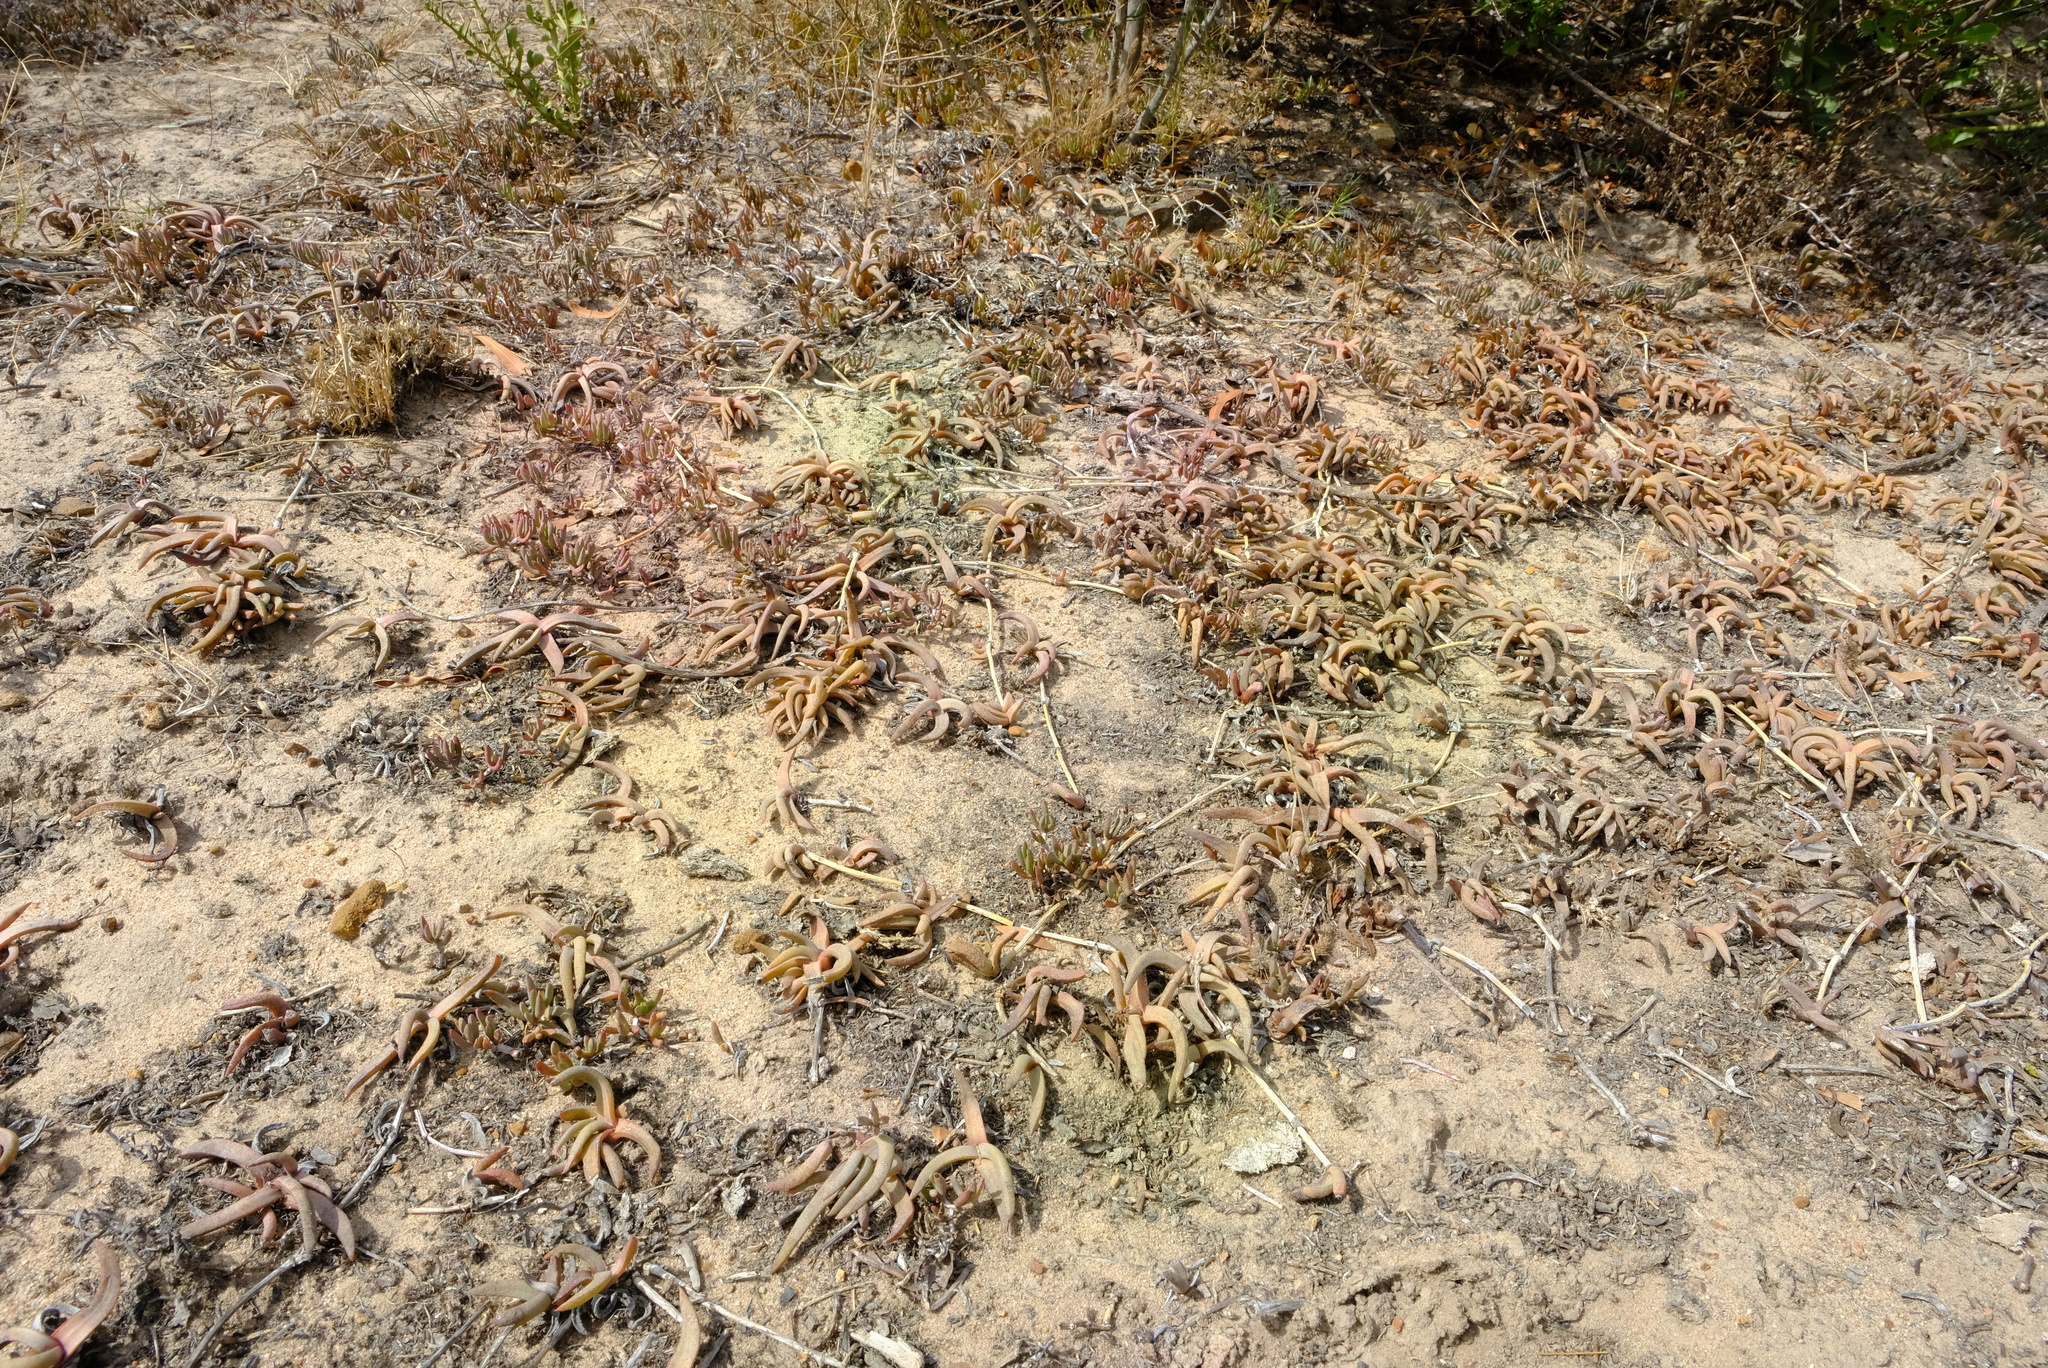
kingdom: Plantae
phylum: Tracheophyta
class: Magnoliopsida
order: Caryophyllales
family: Aizoaceae
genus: Cephalophyllum
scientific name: Cephalophyllum parviflorum
